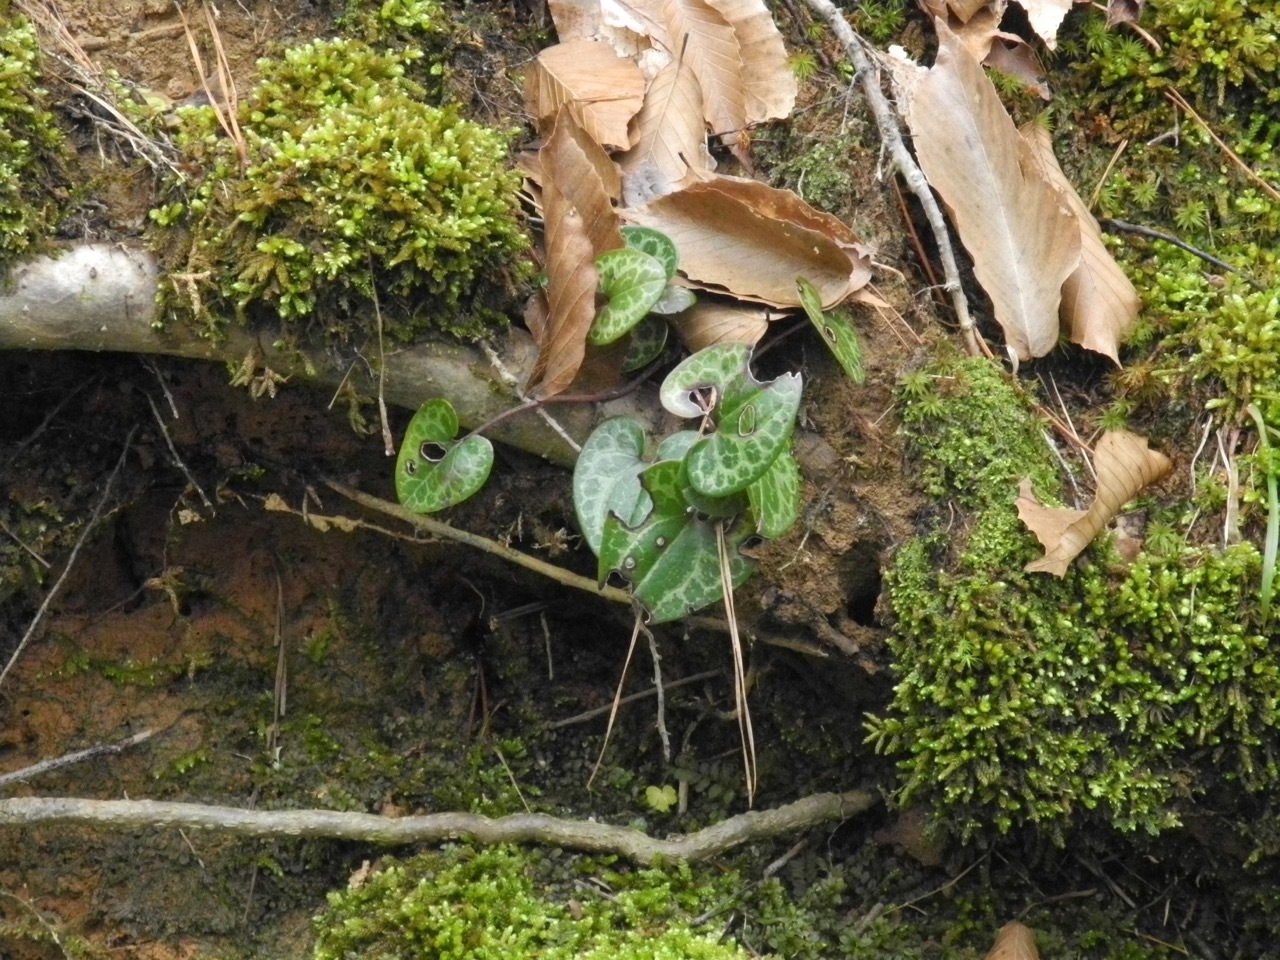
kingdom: Plantae
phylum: Tracheophyta
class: Magnoliopsida
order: Piperales
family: Aristolochiaceae
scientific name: Aristolochiaceae
